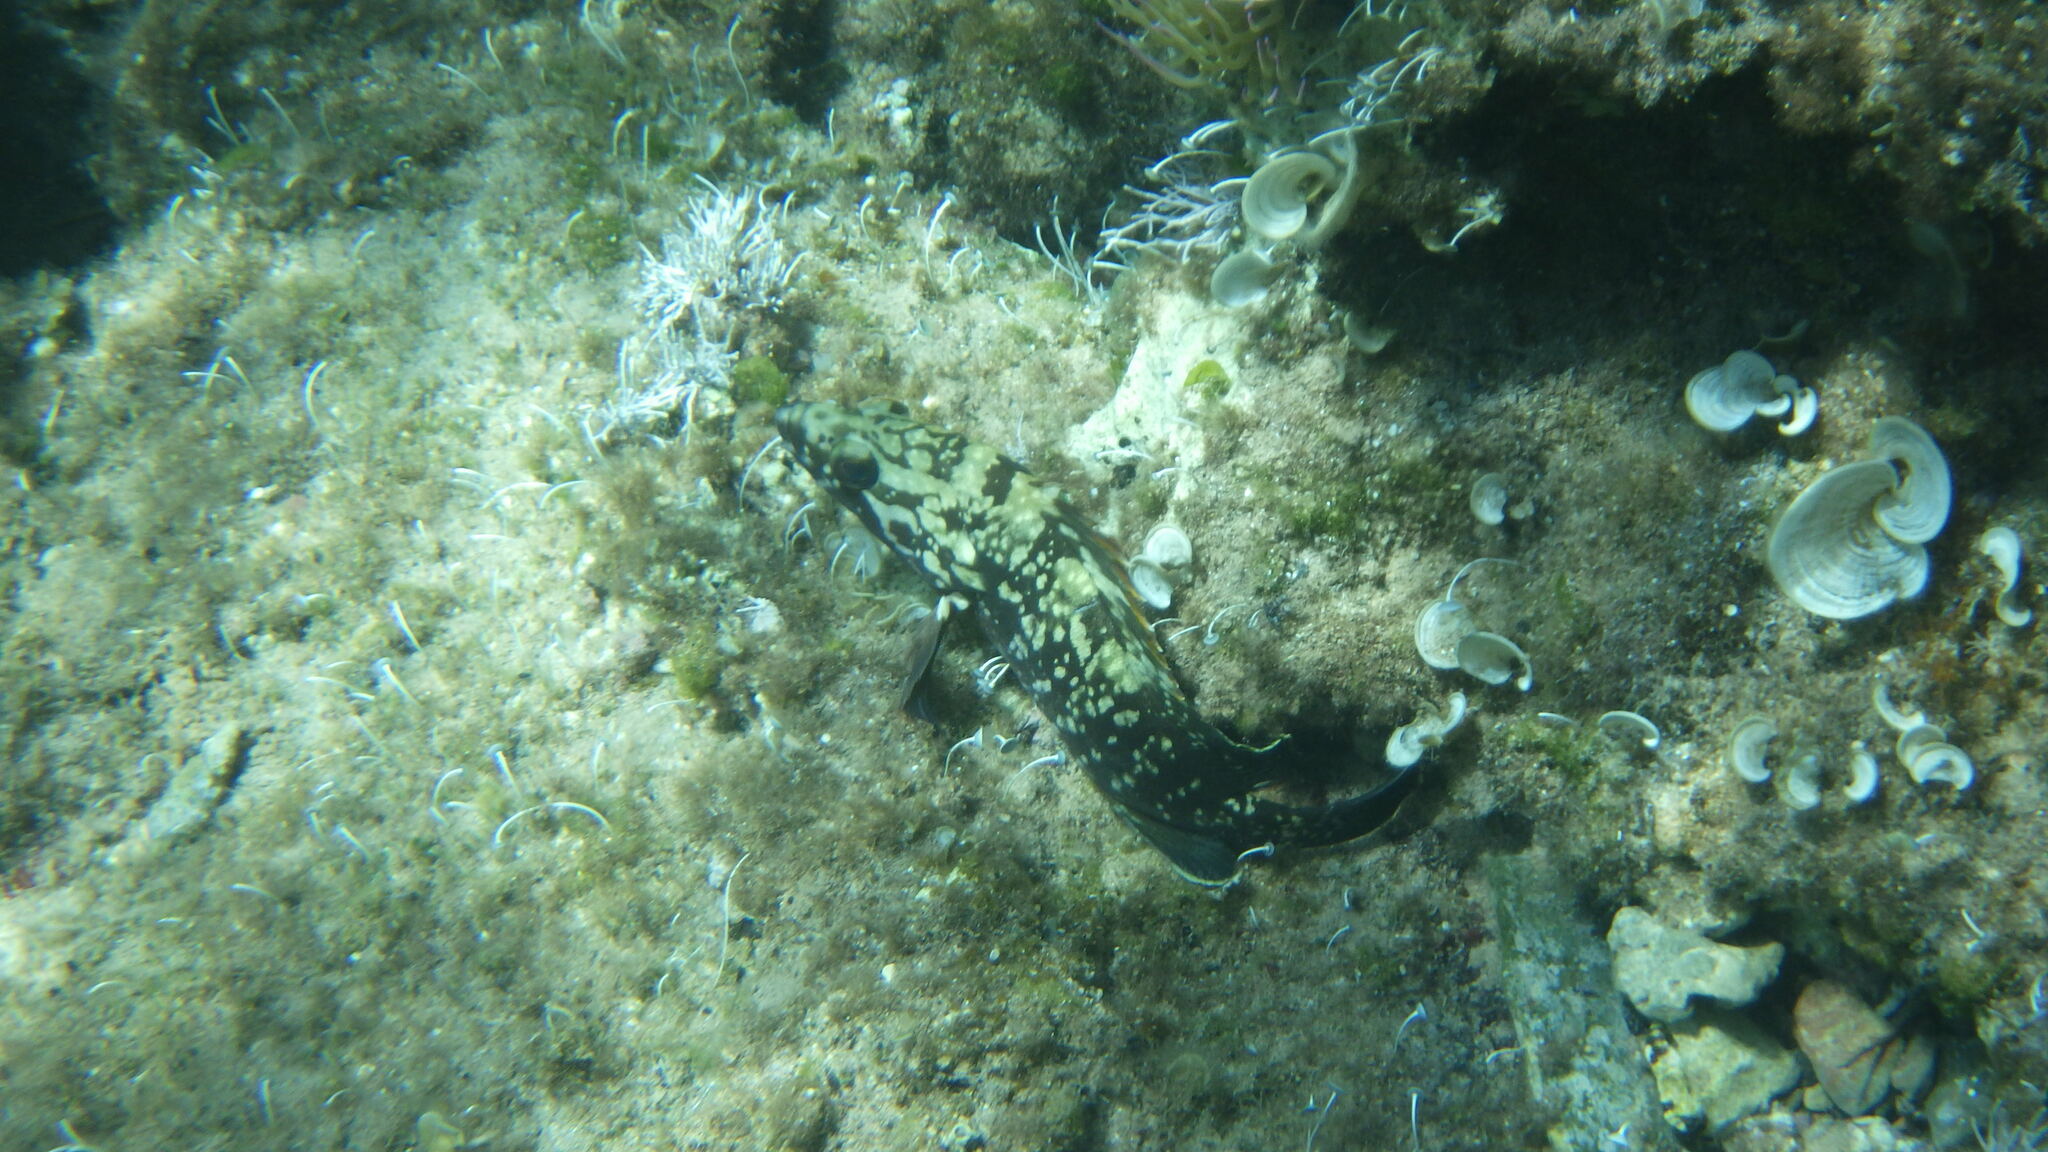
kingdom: Animalia
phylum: Chordata
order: Perciformes
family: Serranidae
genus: Epinephelus
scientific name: Epinephelus marginatus
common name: Dusky grouper
